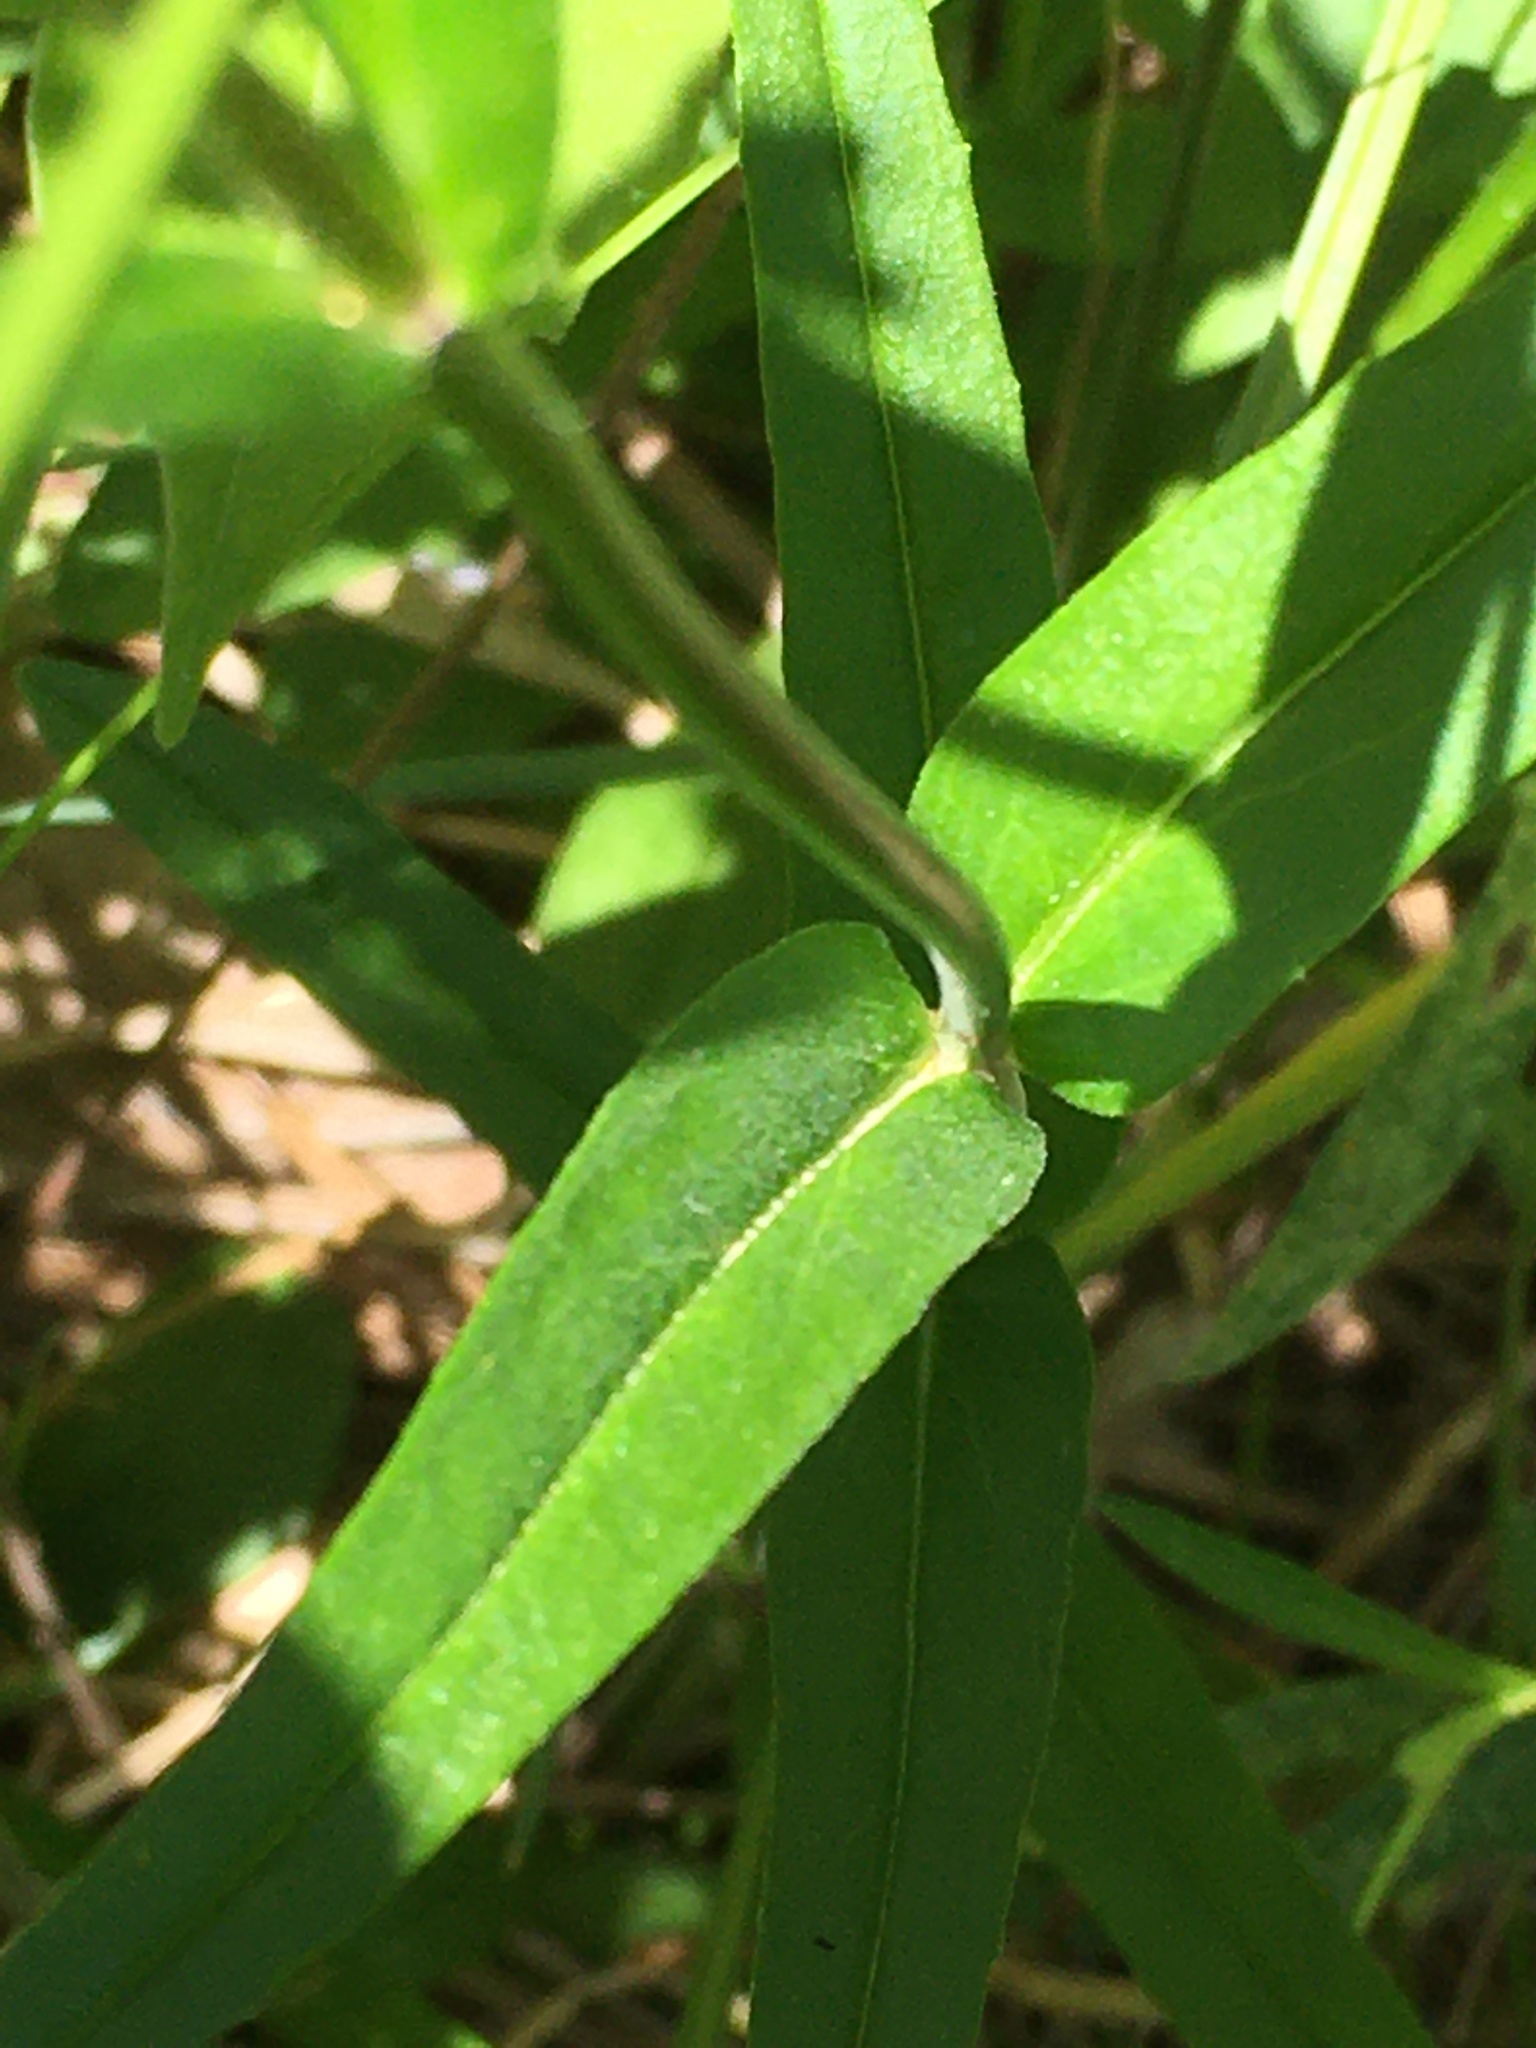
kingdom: Plantae
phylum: Tracheophyta
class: Magnoliopsida
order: Lamiales
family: Plantaginaceae
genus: Penstemon
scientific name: Penstemon laevigatus
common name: Eastern beardtongue
